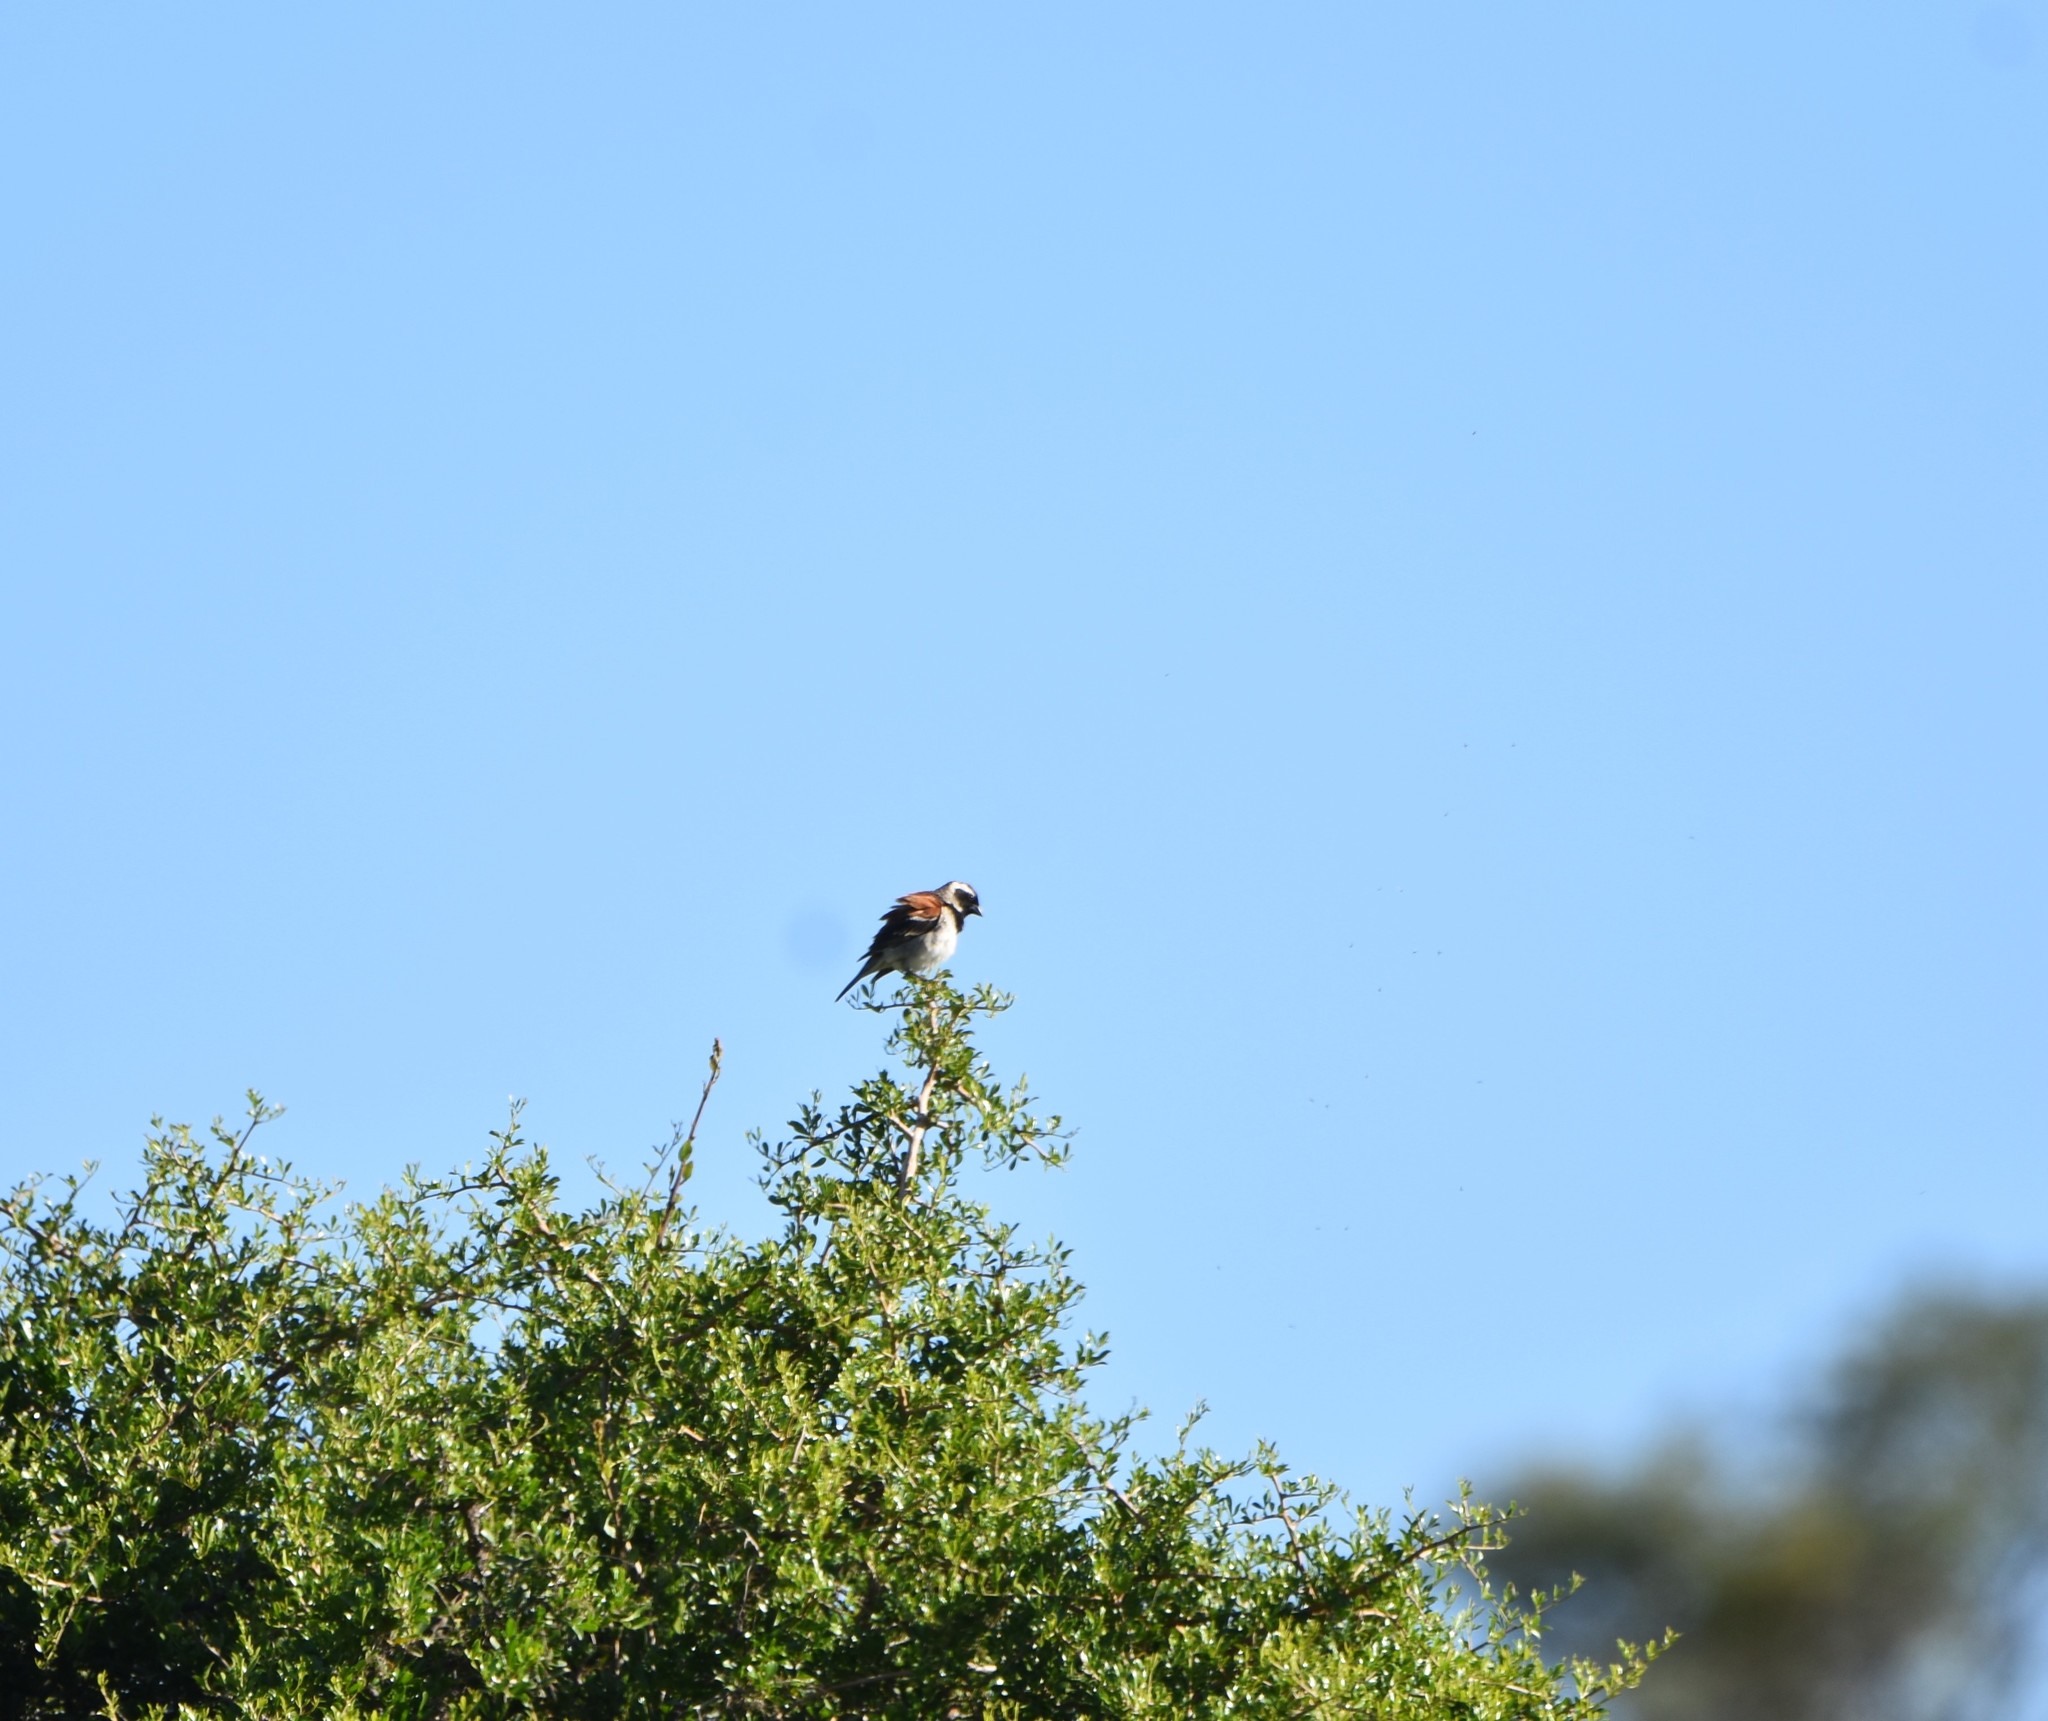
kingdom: Animalia
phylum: Chordata
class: Aves
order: Passeriformes
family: Passeridae
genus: Passer
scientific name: Passer melanurus
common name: Cape sparrow
